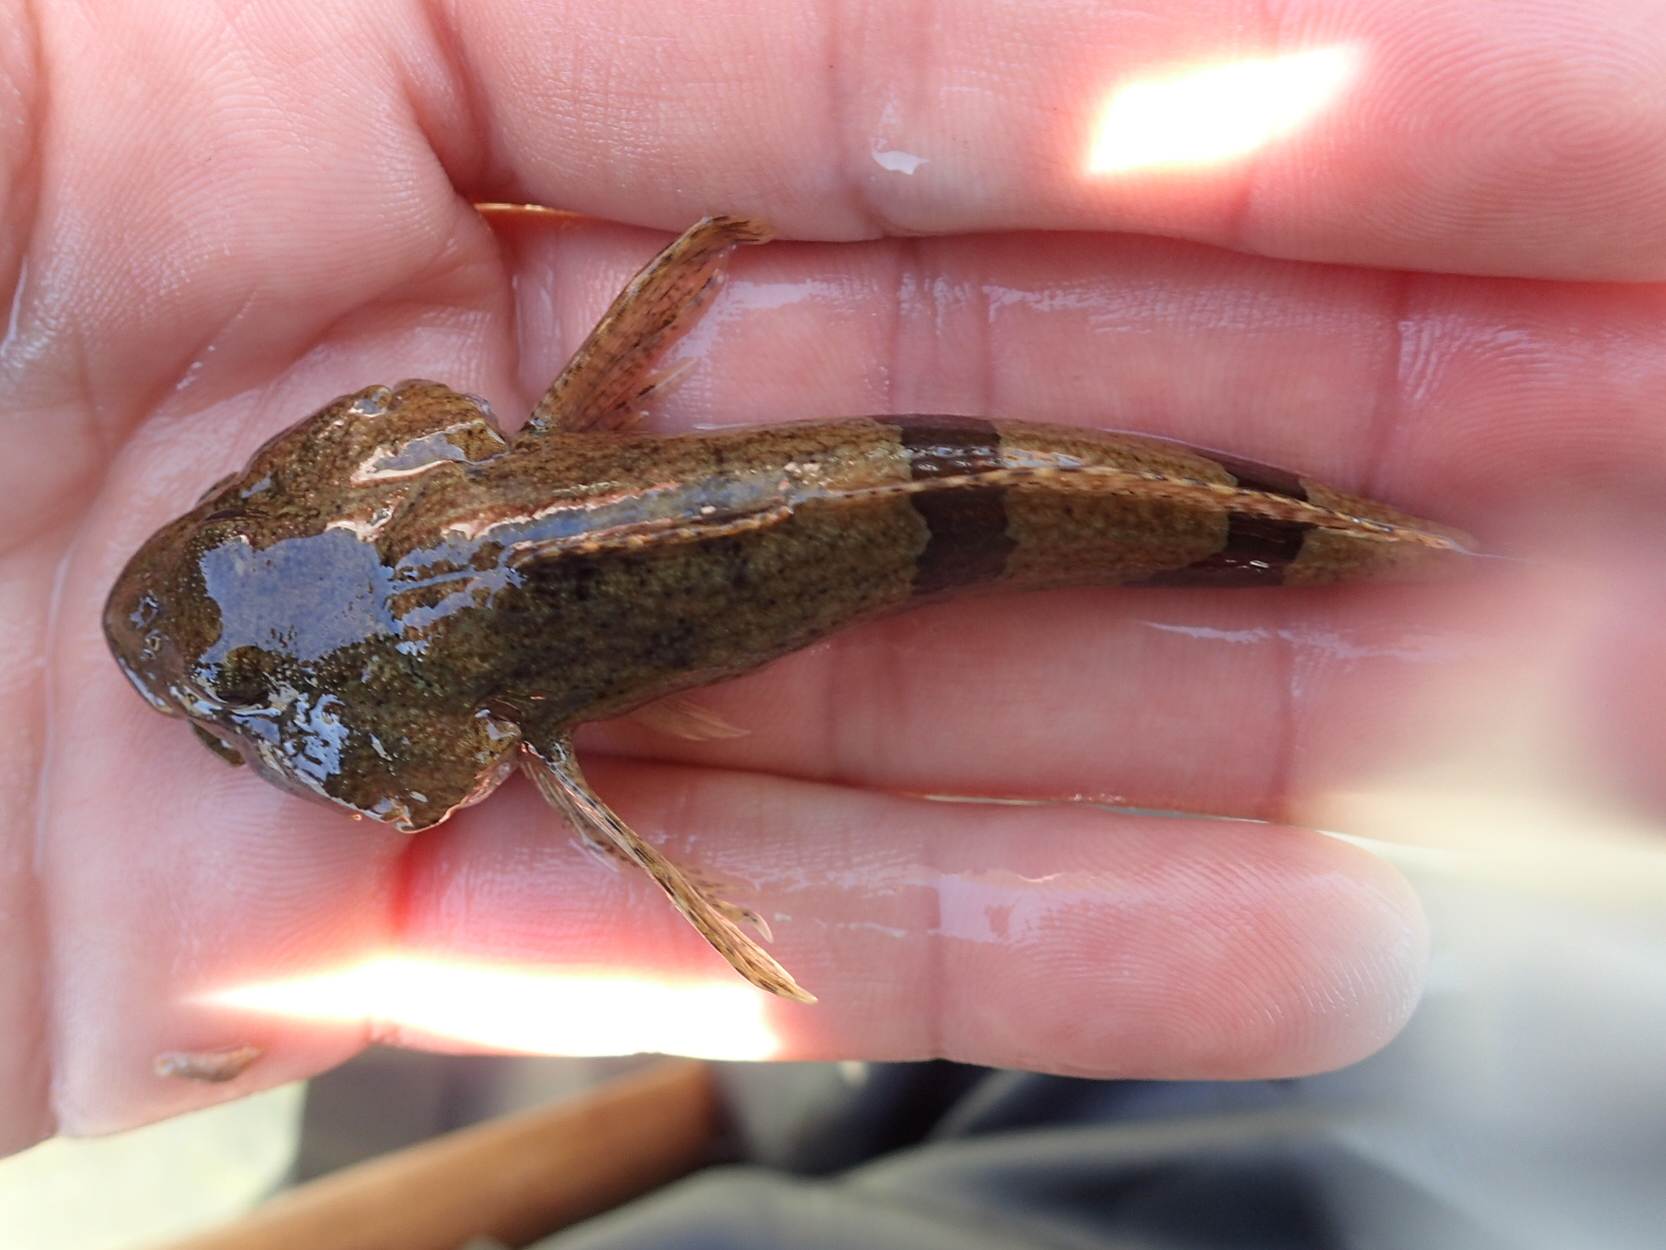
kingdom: Animalia
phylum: Chordata
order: Scorpaeniformes
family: Cottidae
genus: Cottus
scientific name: Cottus carolinae
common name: Banded sculpin
